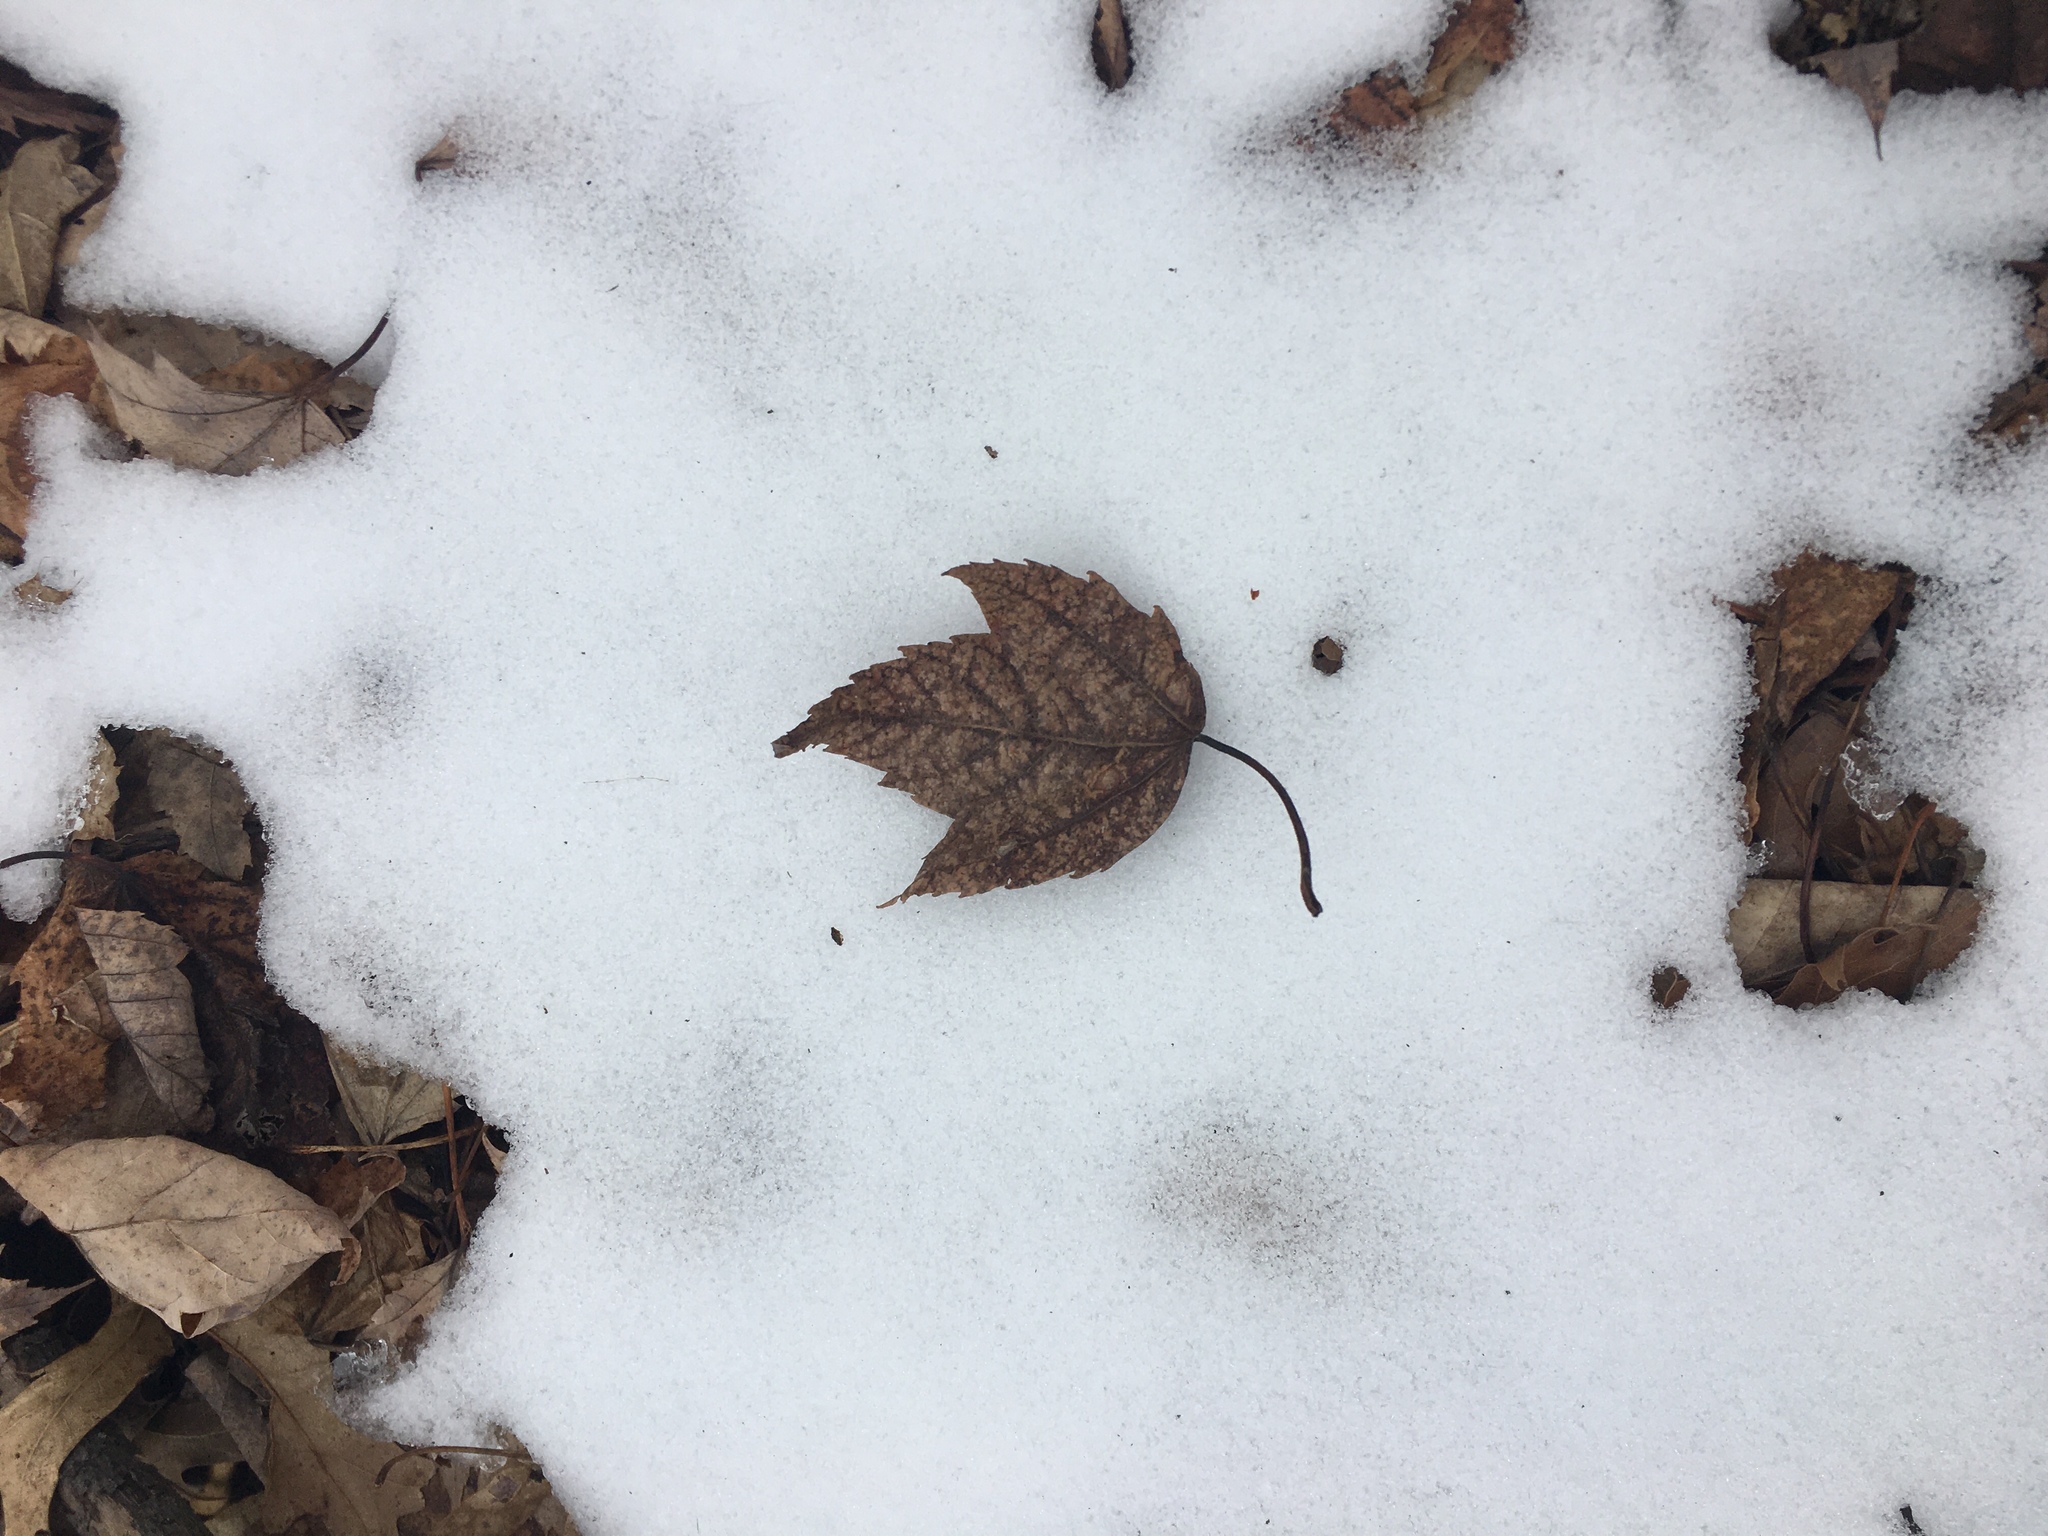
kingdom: Plantae
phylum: Tracheophyta
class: Magnoliopsida
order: Sapindales
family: Sapindaceae
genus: Acer
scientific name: Acer rubrum
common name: Red maple
